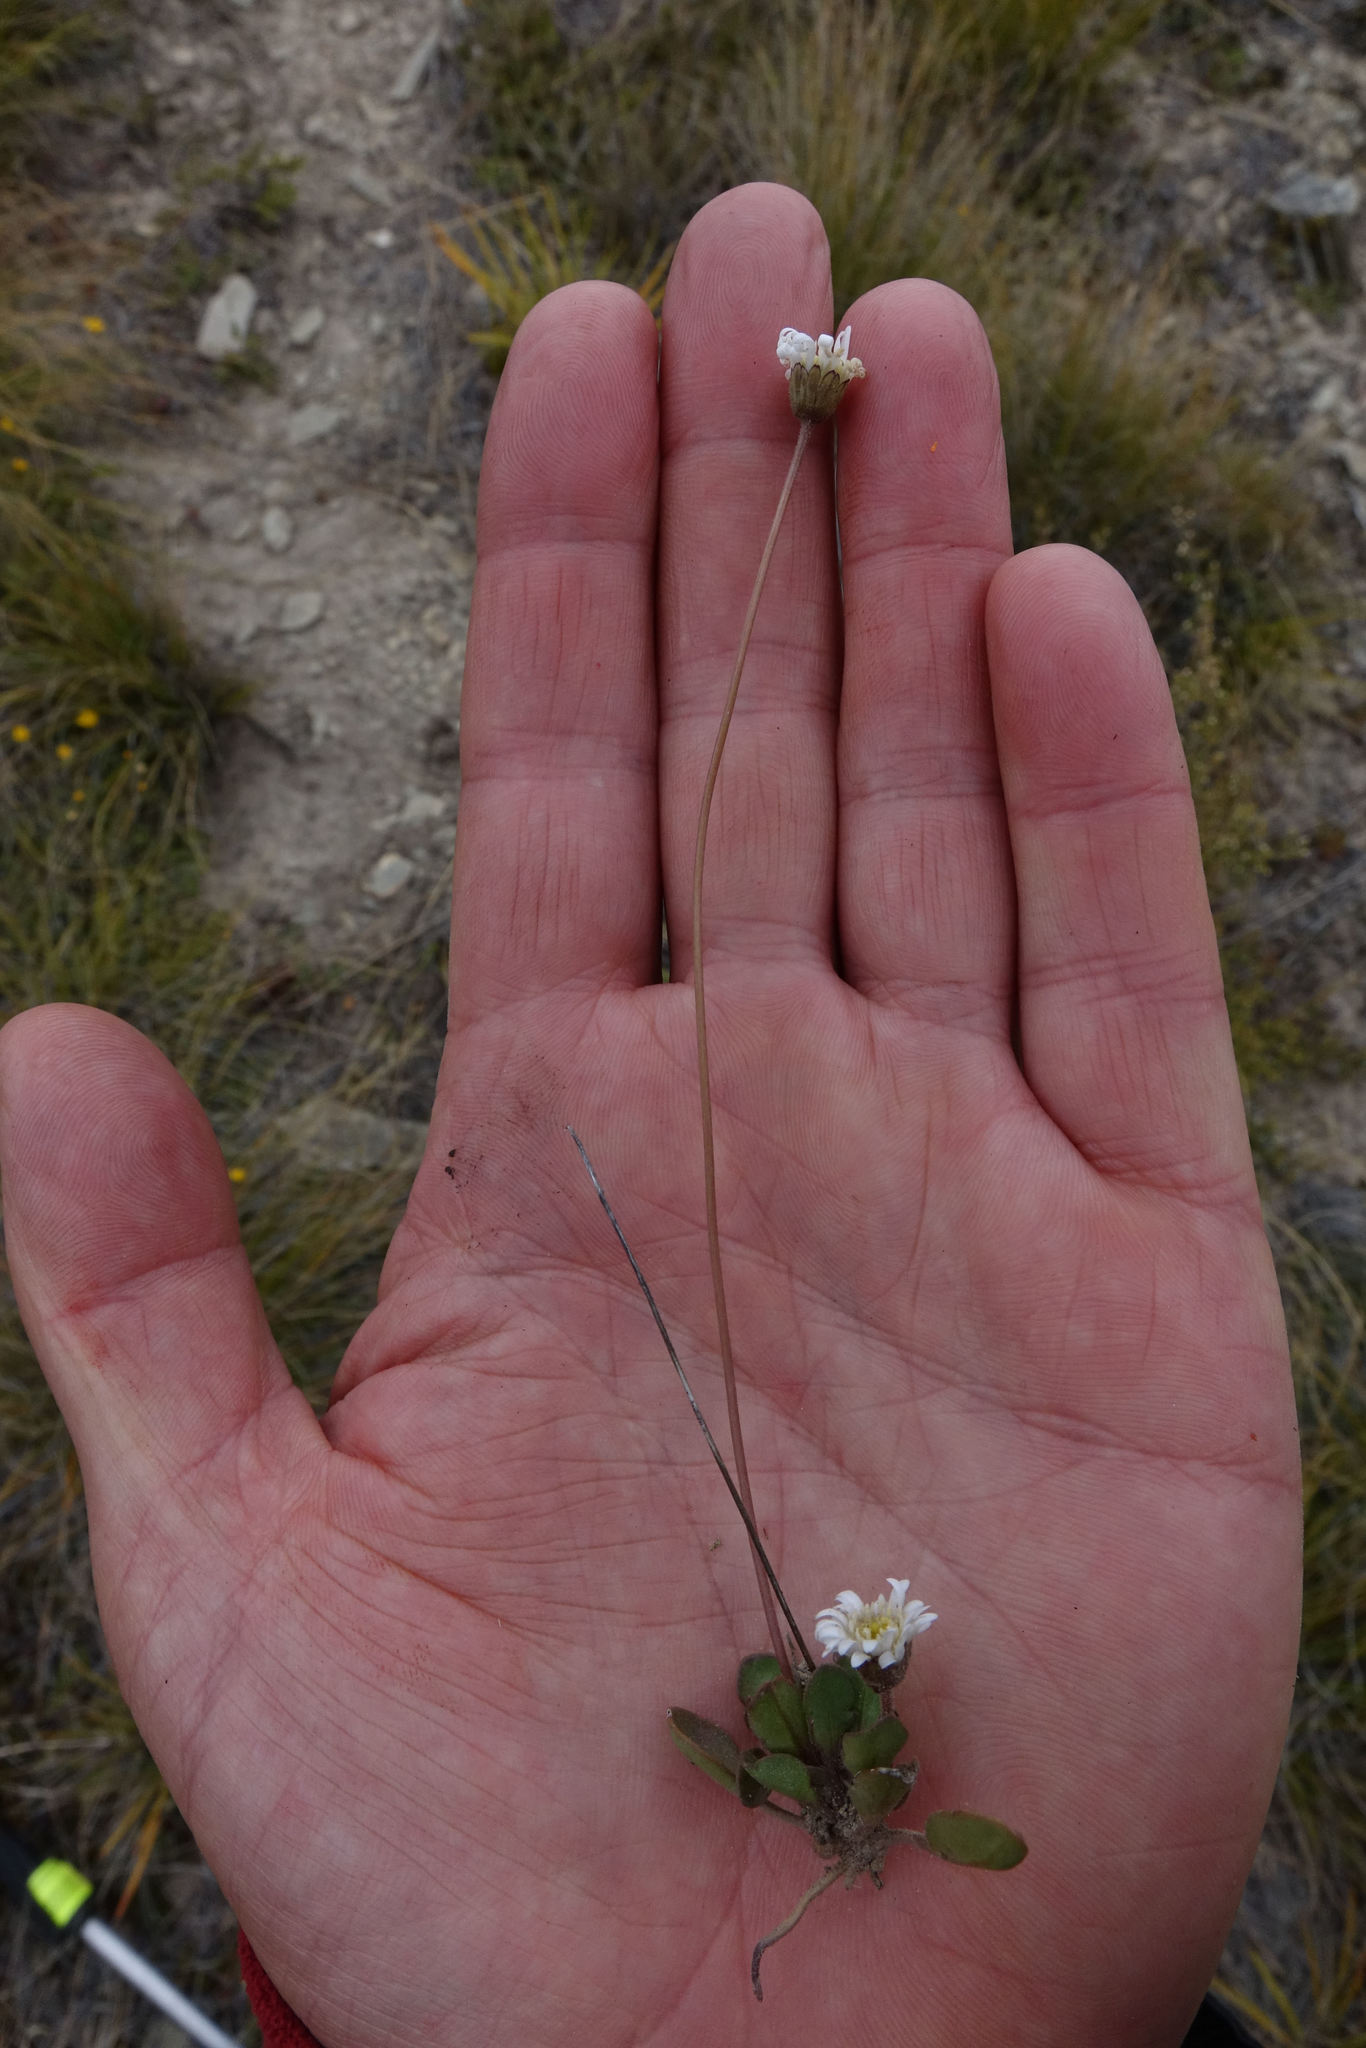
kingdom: Plantae
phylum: Tracheophyta
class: Magnoliopsida
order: Asterales
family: Asteraceae
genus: Brachyscome
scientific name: Brachyscome longiscapa
